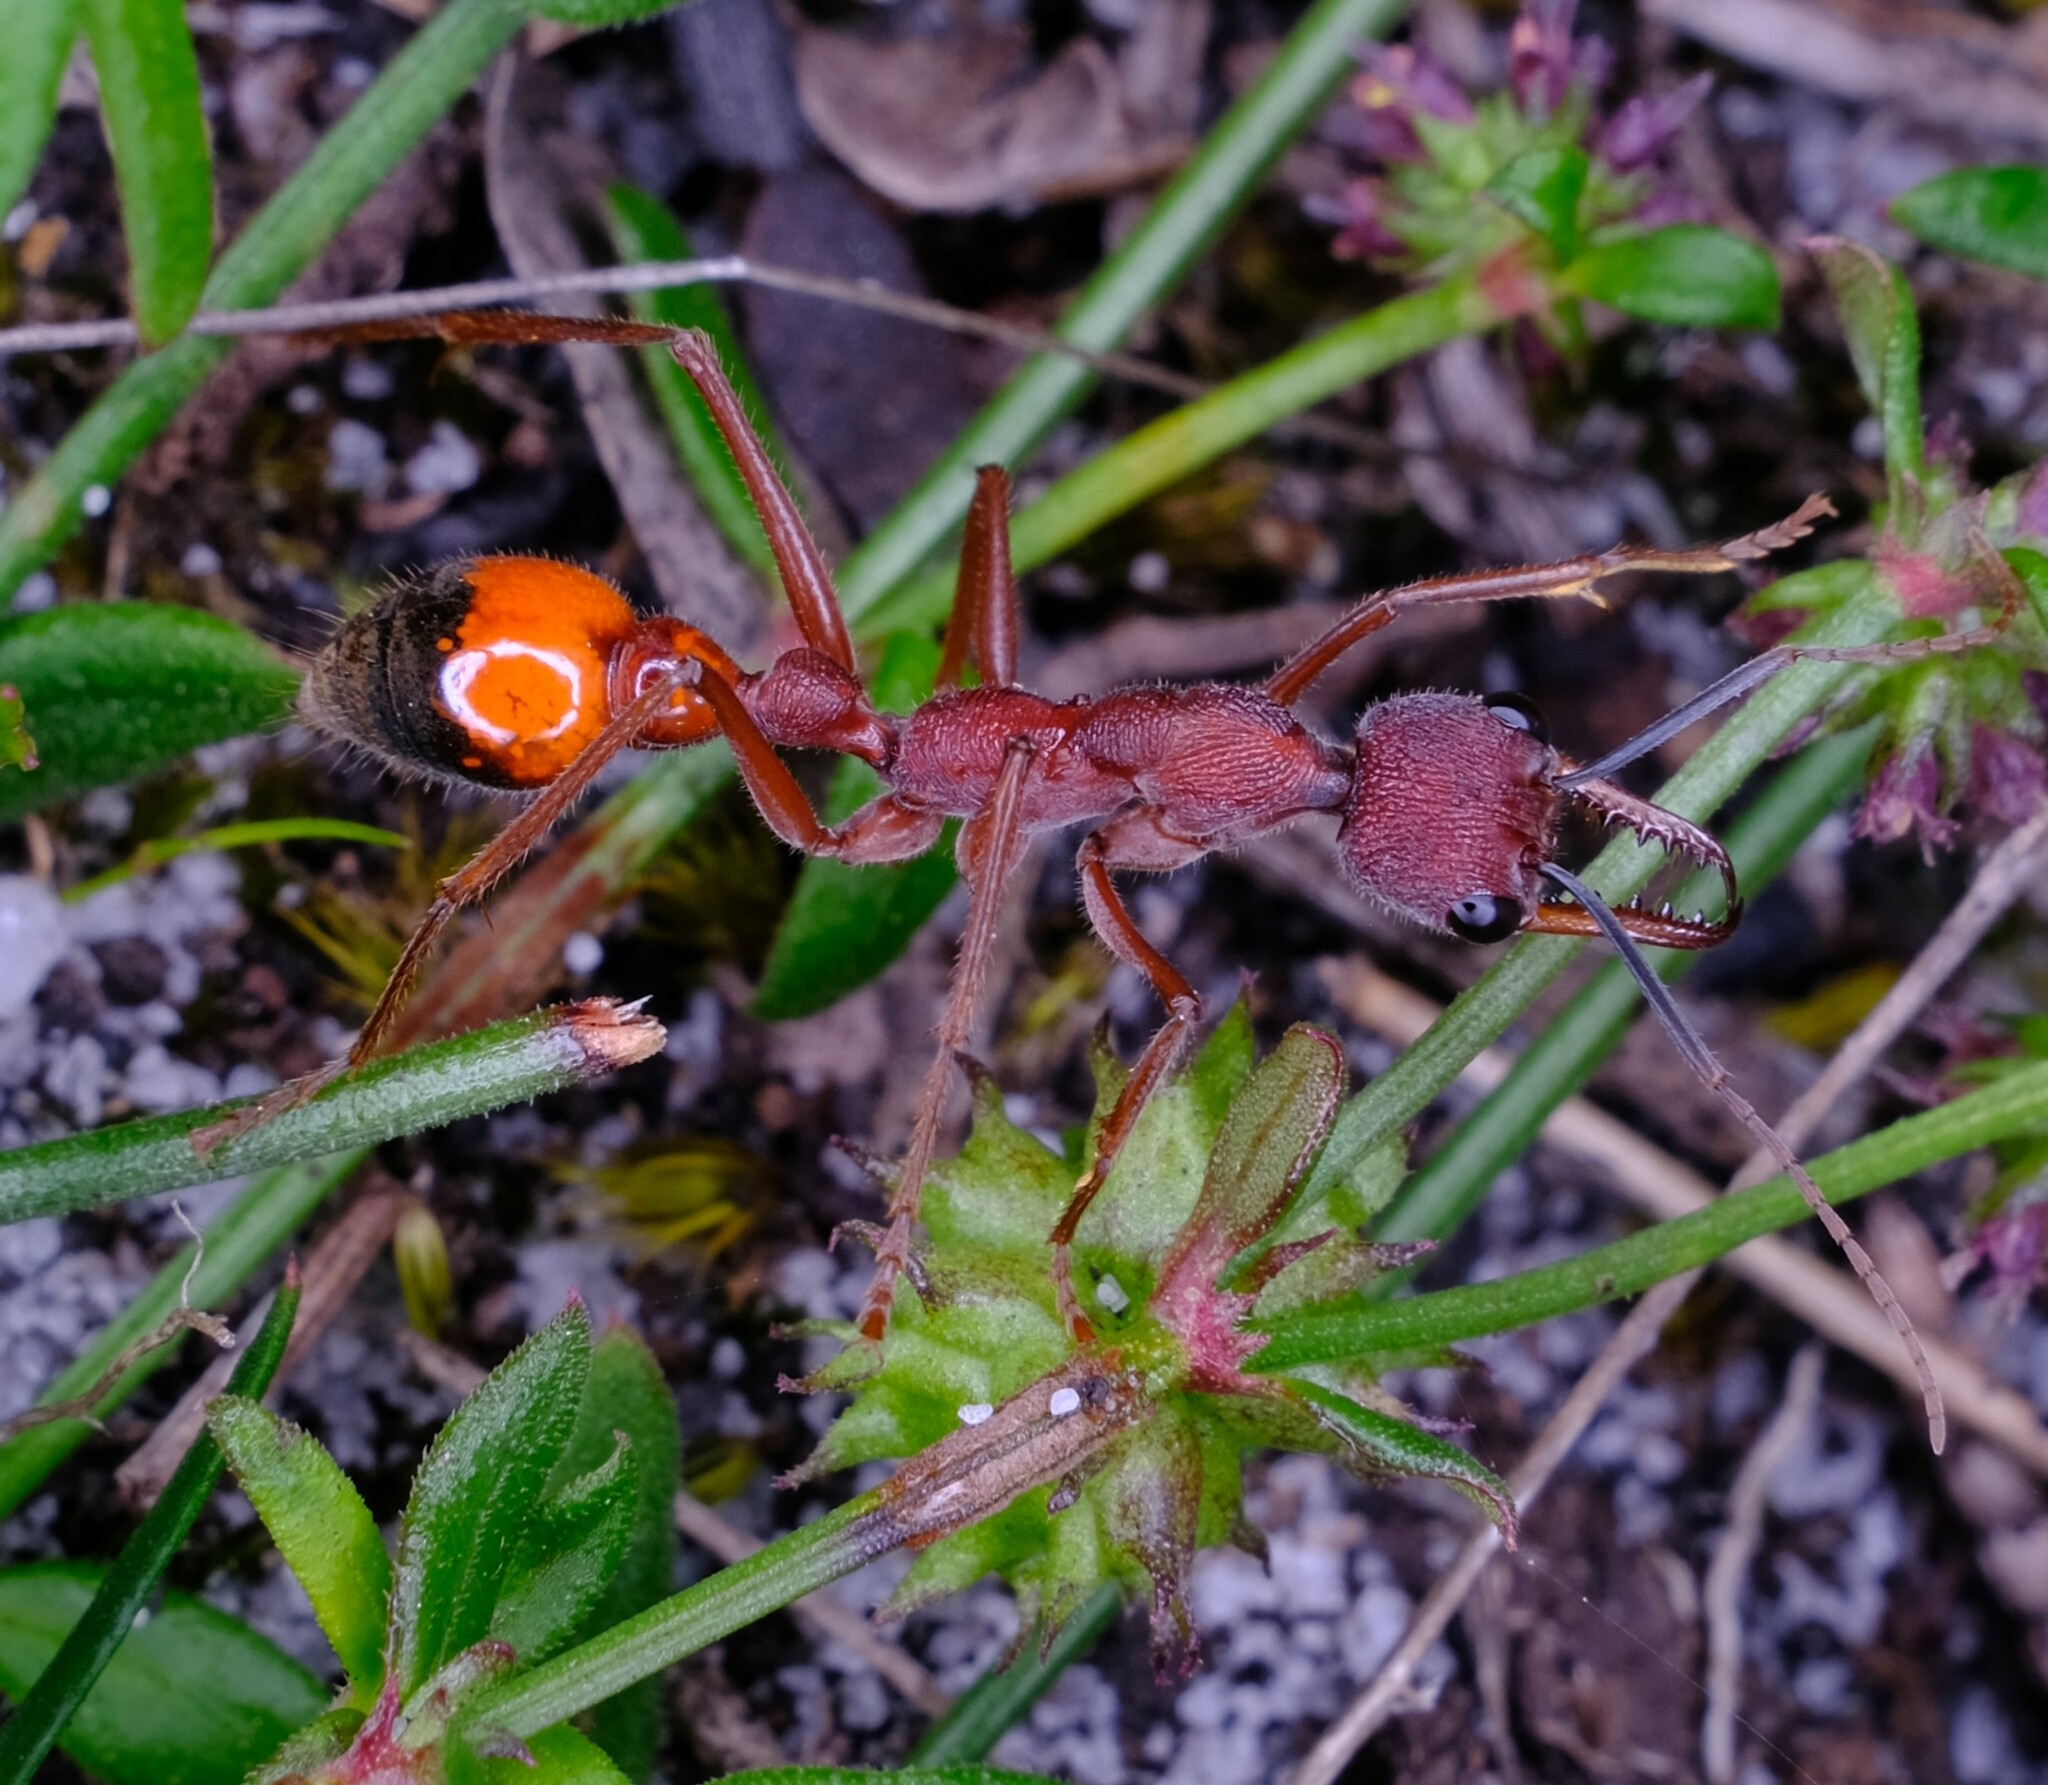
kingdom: Animalia
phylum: Arthropoda
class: Insecta
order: Hymenoptera
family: Formicidae
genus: Myrmecia
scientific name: Myrmecia nigriscapa
